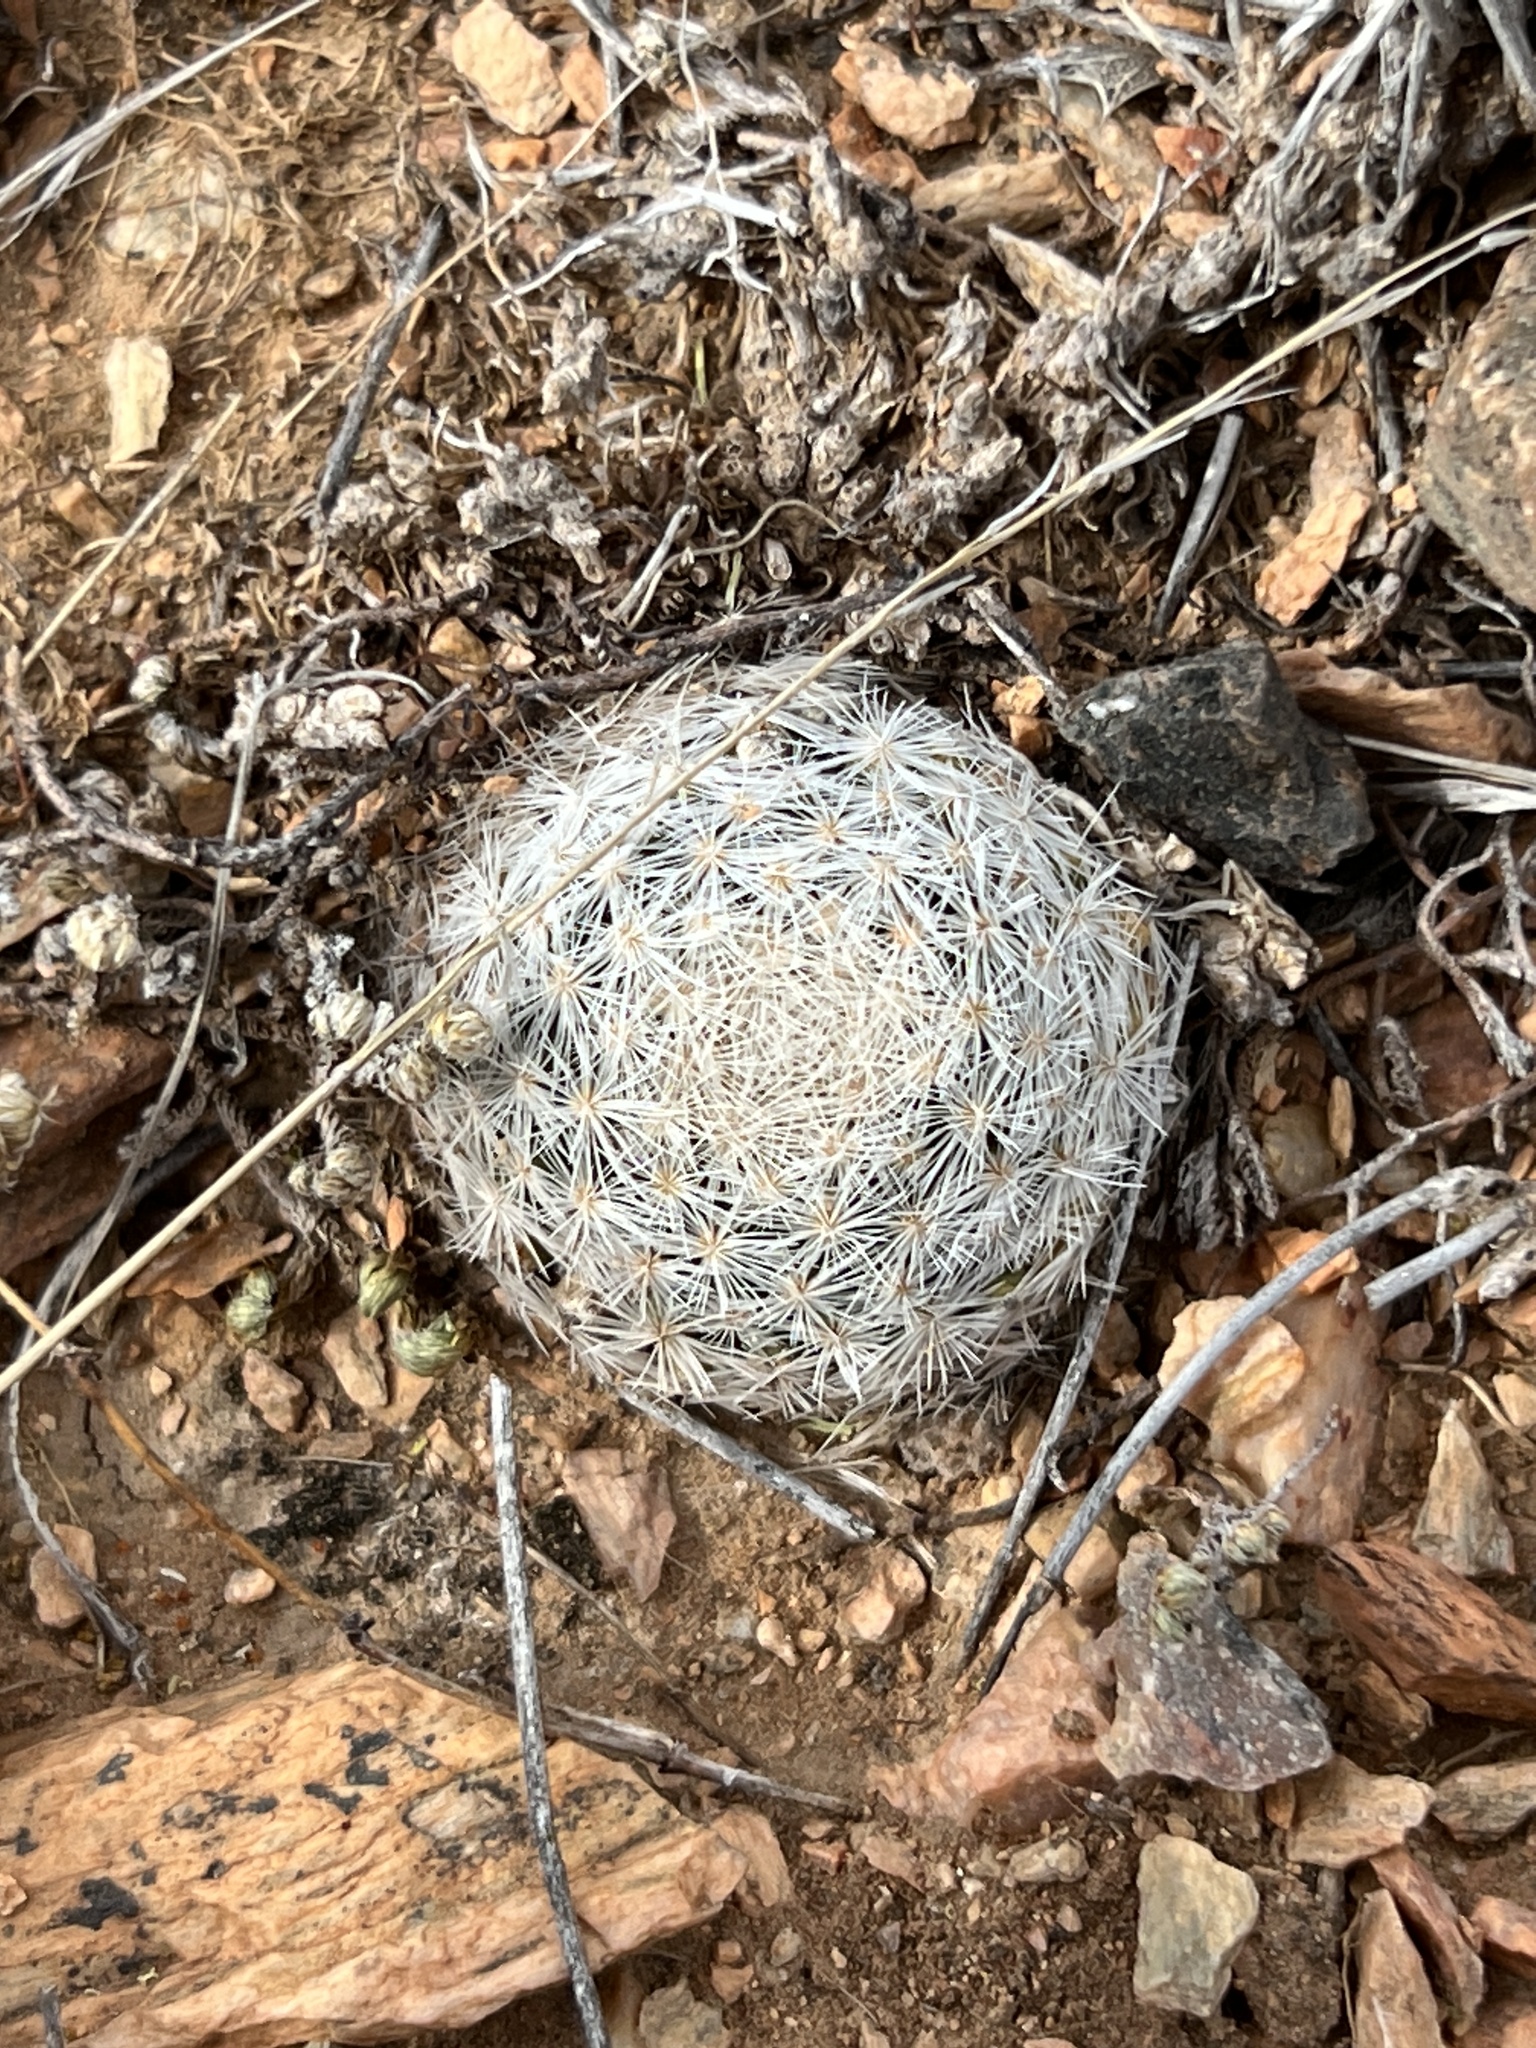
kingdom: Plantae
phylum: Tracheophyta
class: Magnoliopsida
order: Caryophyllales
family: Cactaceae
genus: Mammillaria
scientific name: Mammillaria lasiacantha
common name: Lace-spine nipple cactus
